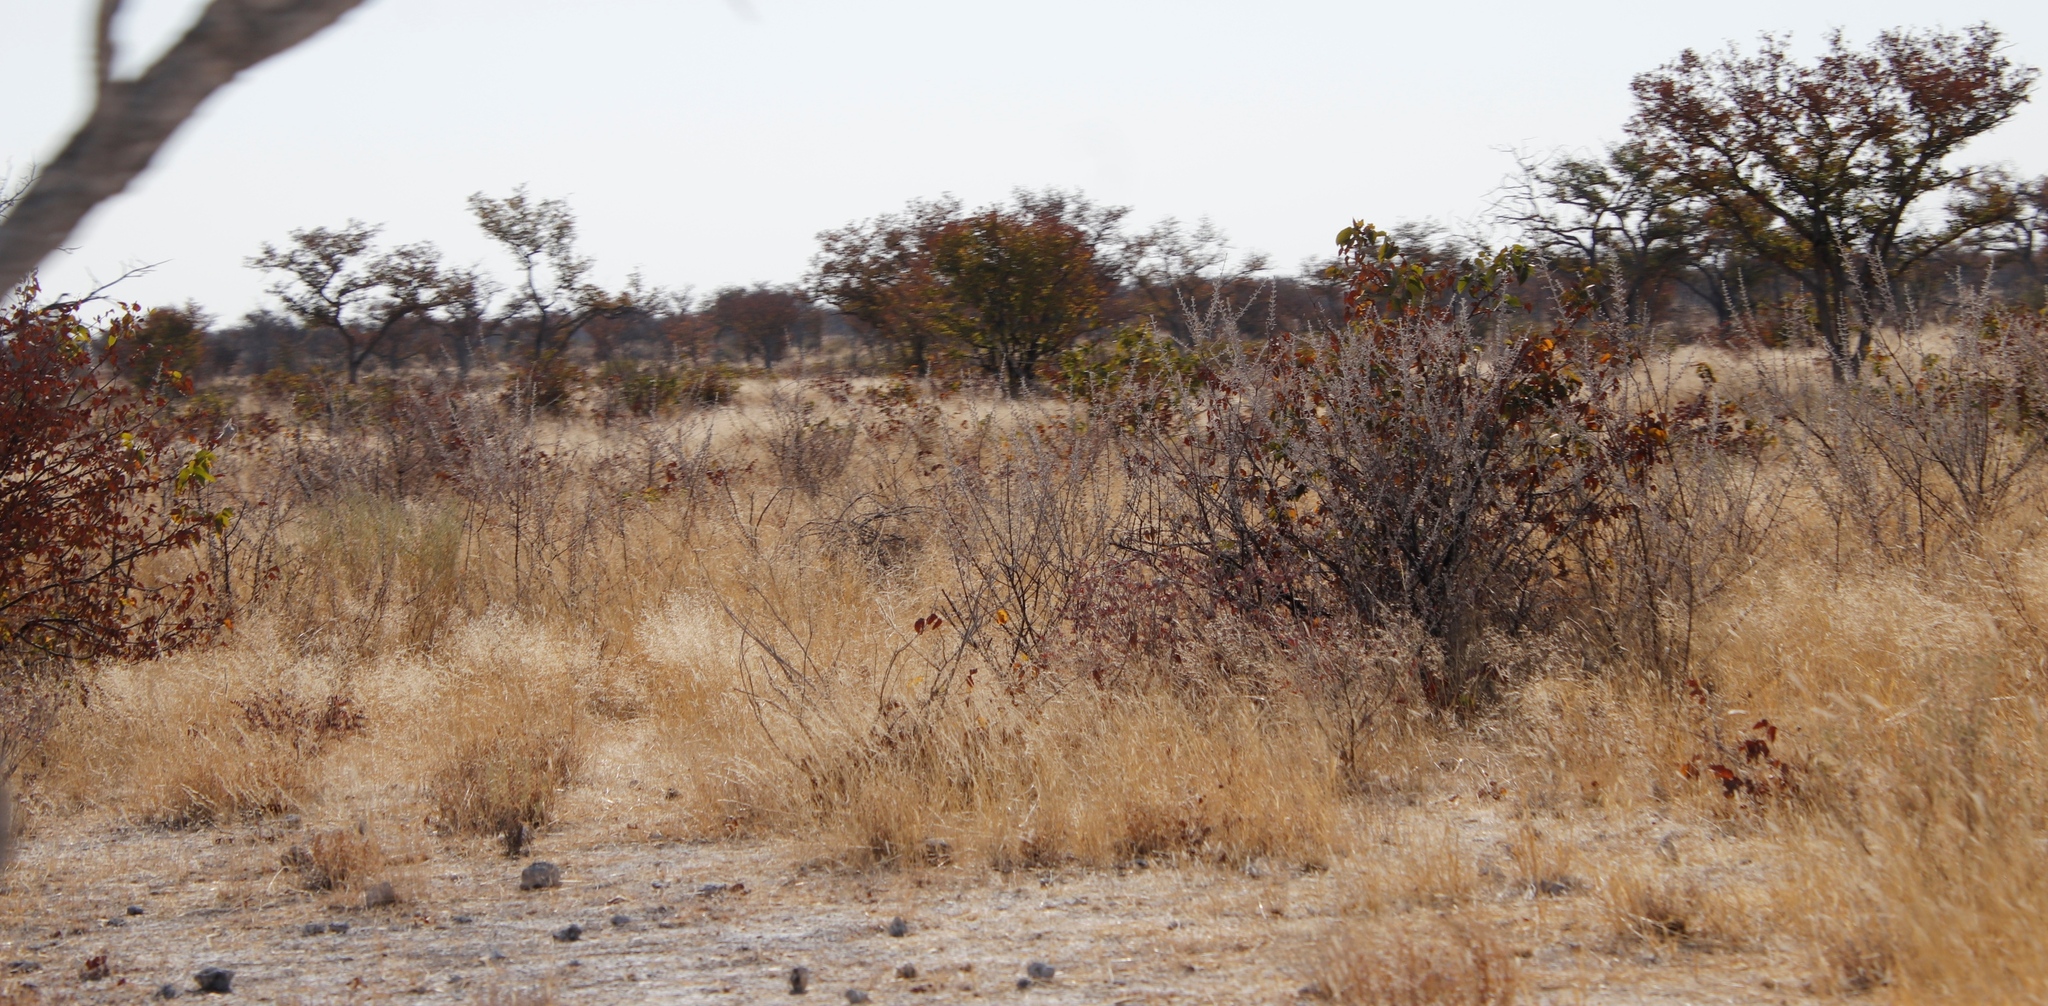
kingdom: Plantae
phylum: Tracheophyta
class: Magnoliopsida
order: Fabales
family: Fabaceae
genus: Colophospermum
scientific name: Colophospermum mopane
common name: Mopane
